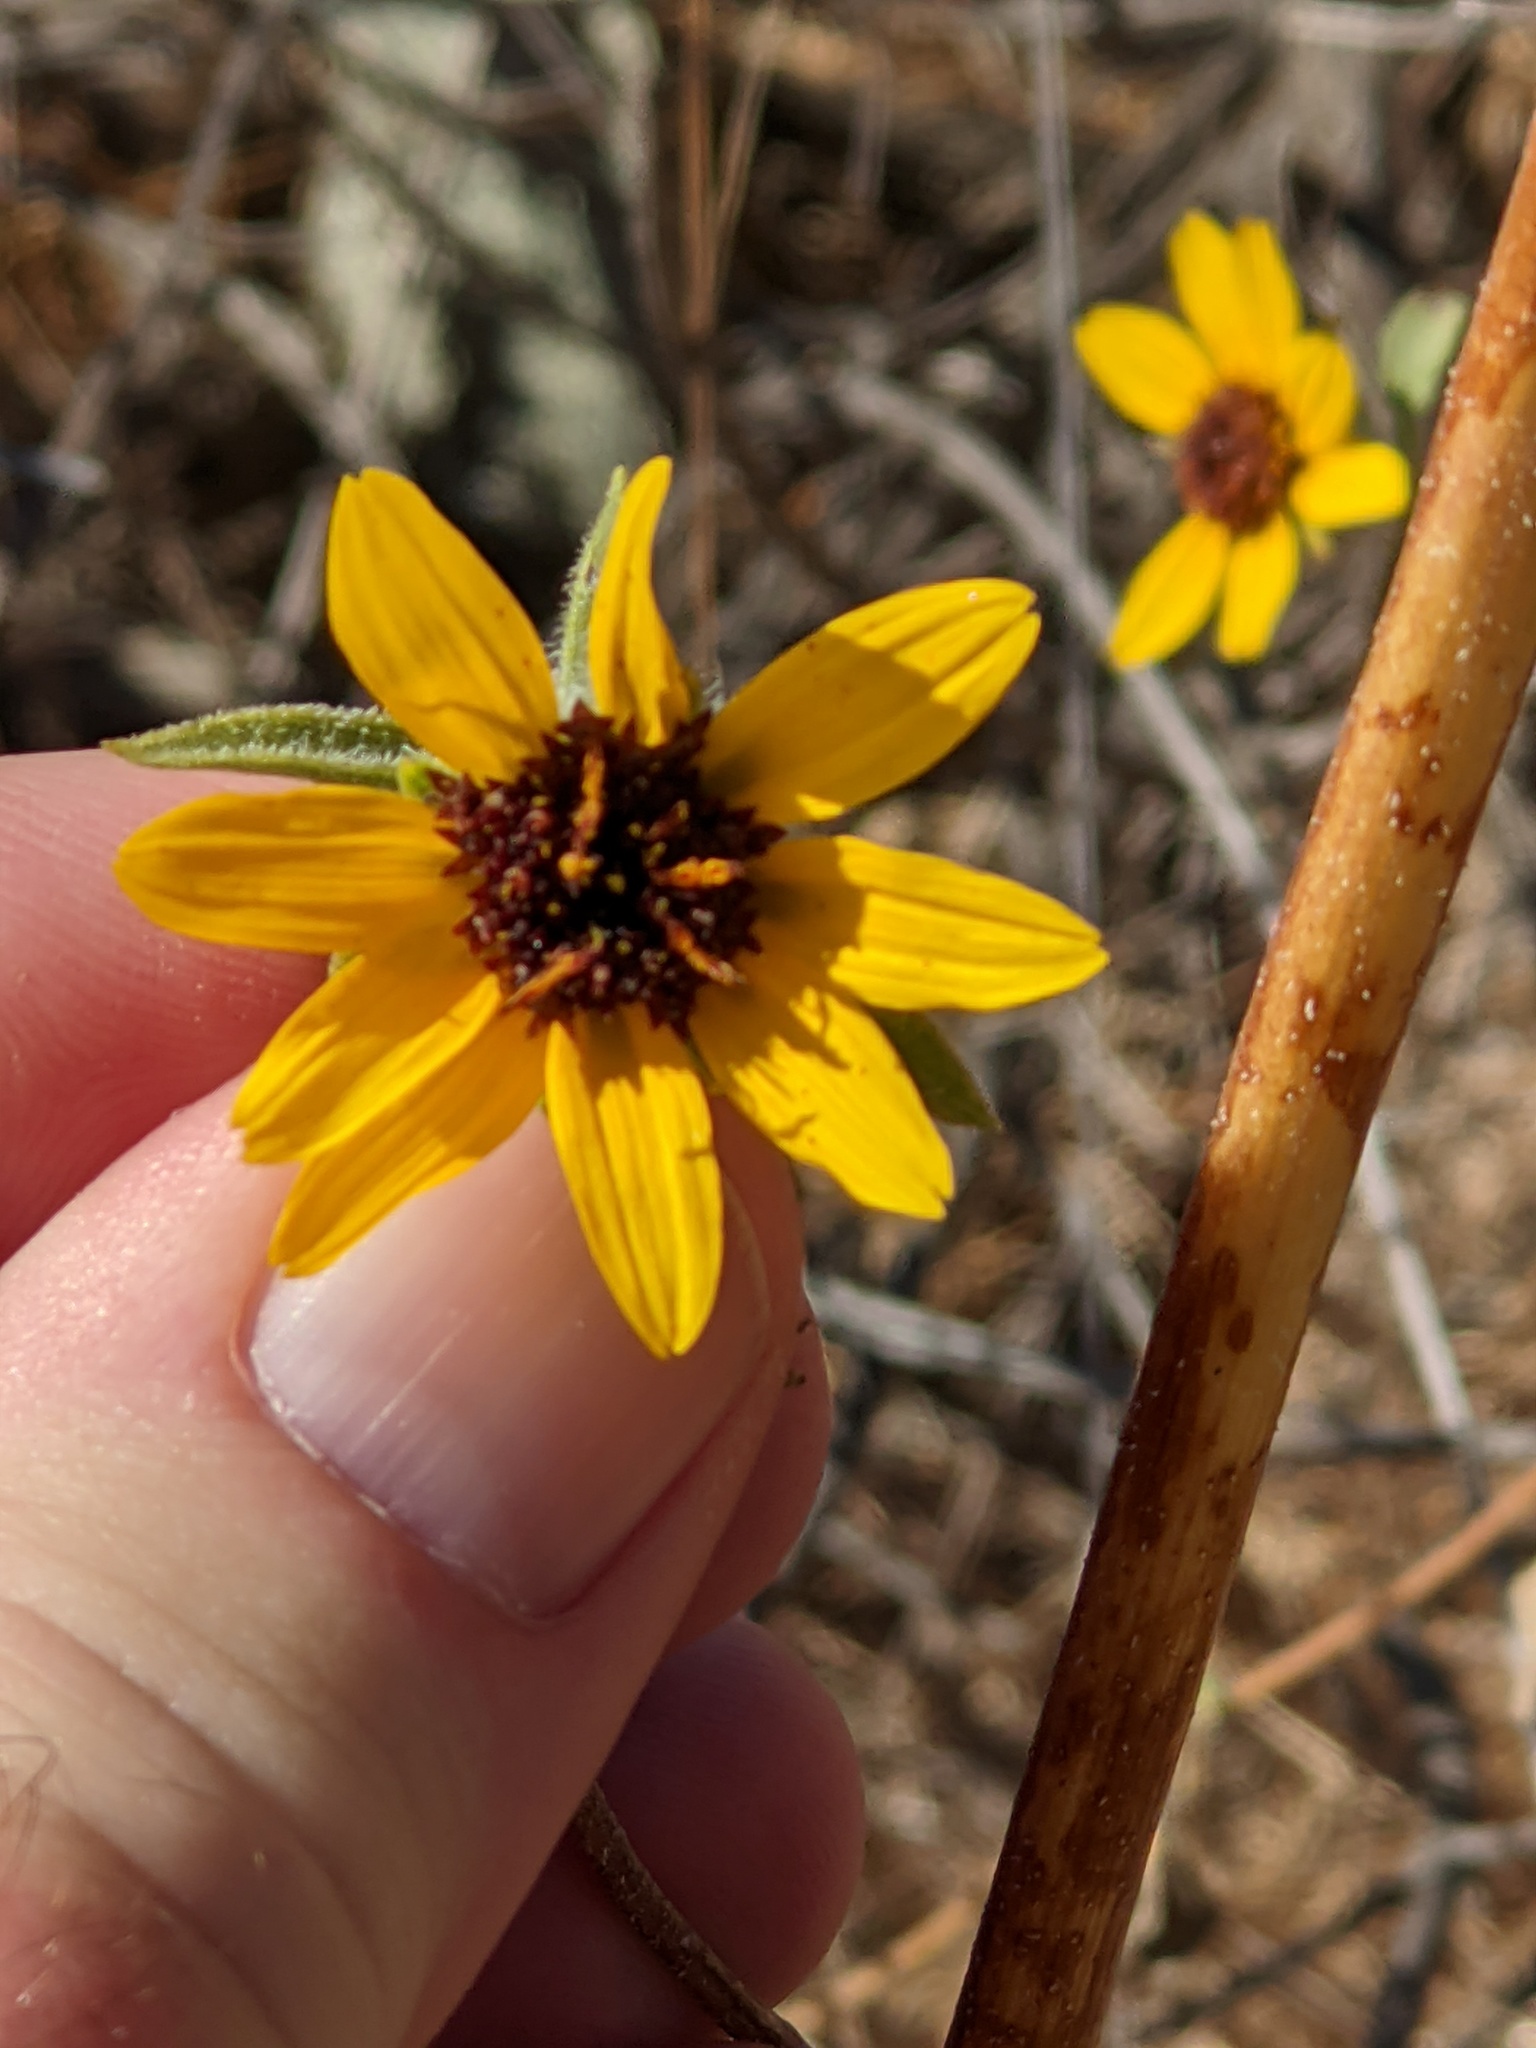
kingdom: Plantae
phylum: Tracheophyta
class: Magnoliopsida
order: Asterales
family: Asteraceae
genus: Helianthus
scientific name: Helianthus exilis
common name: Serpentine sunflower
